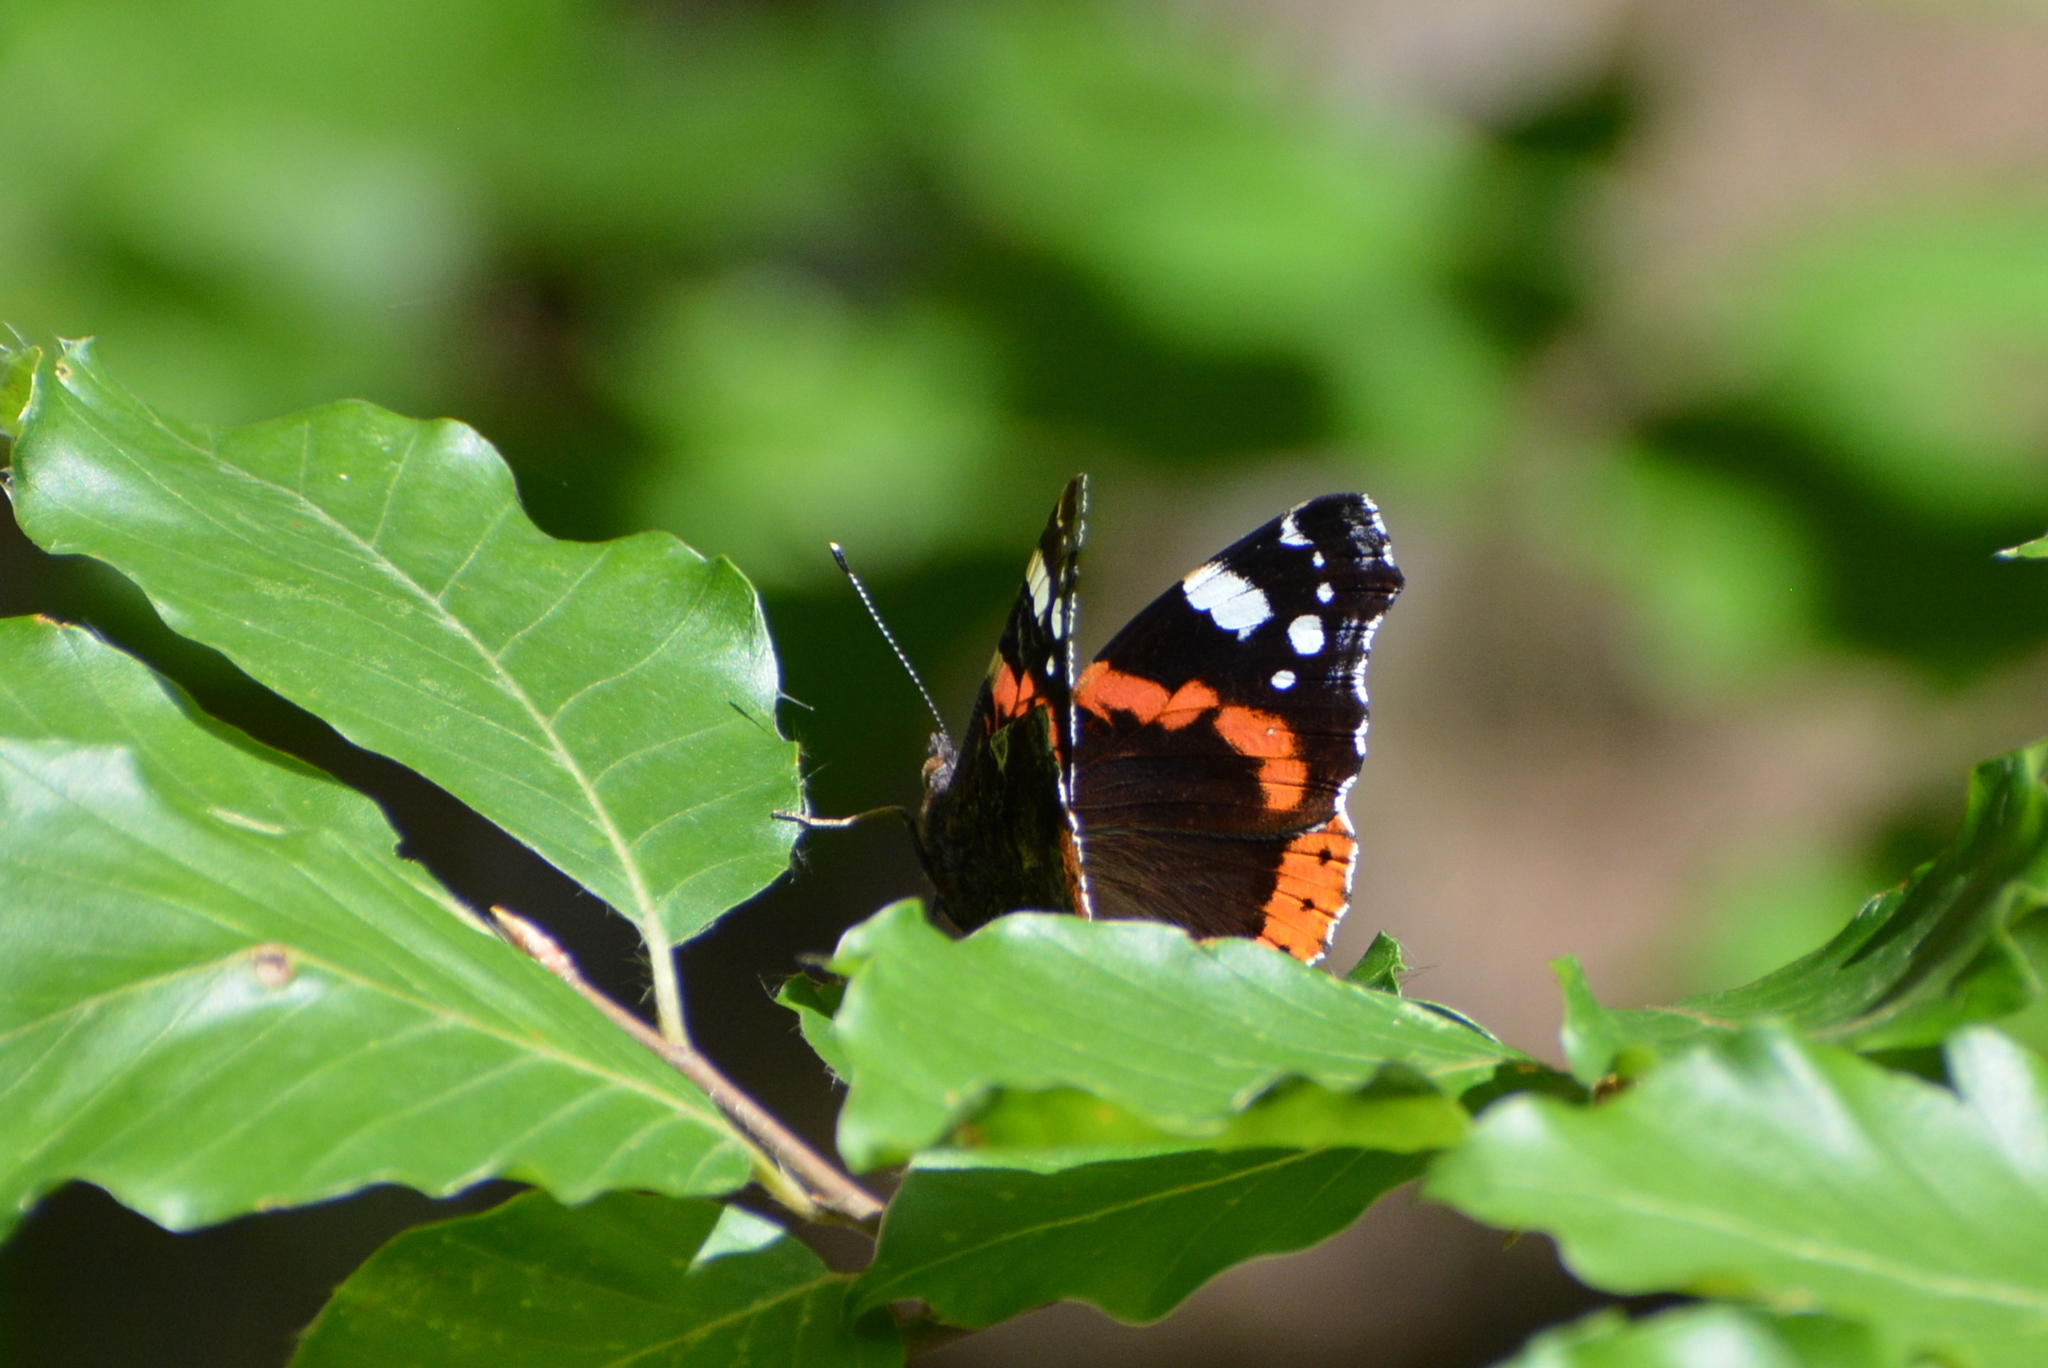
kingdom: Animalia
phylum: Arthropoda
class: Insecta
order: Lepidoptera
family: Nymphalidae
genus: Vanessa
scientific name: Vanessa atalanta
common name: Red admiral
